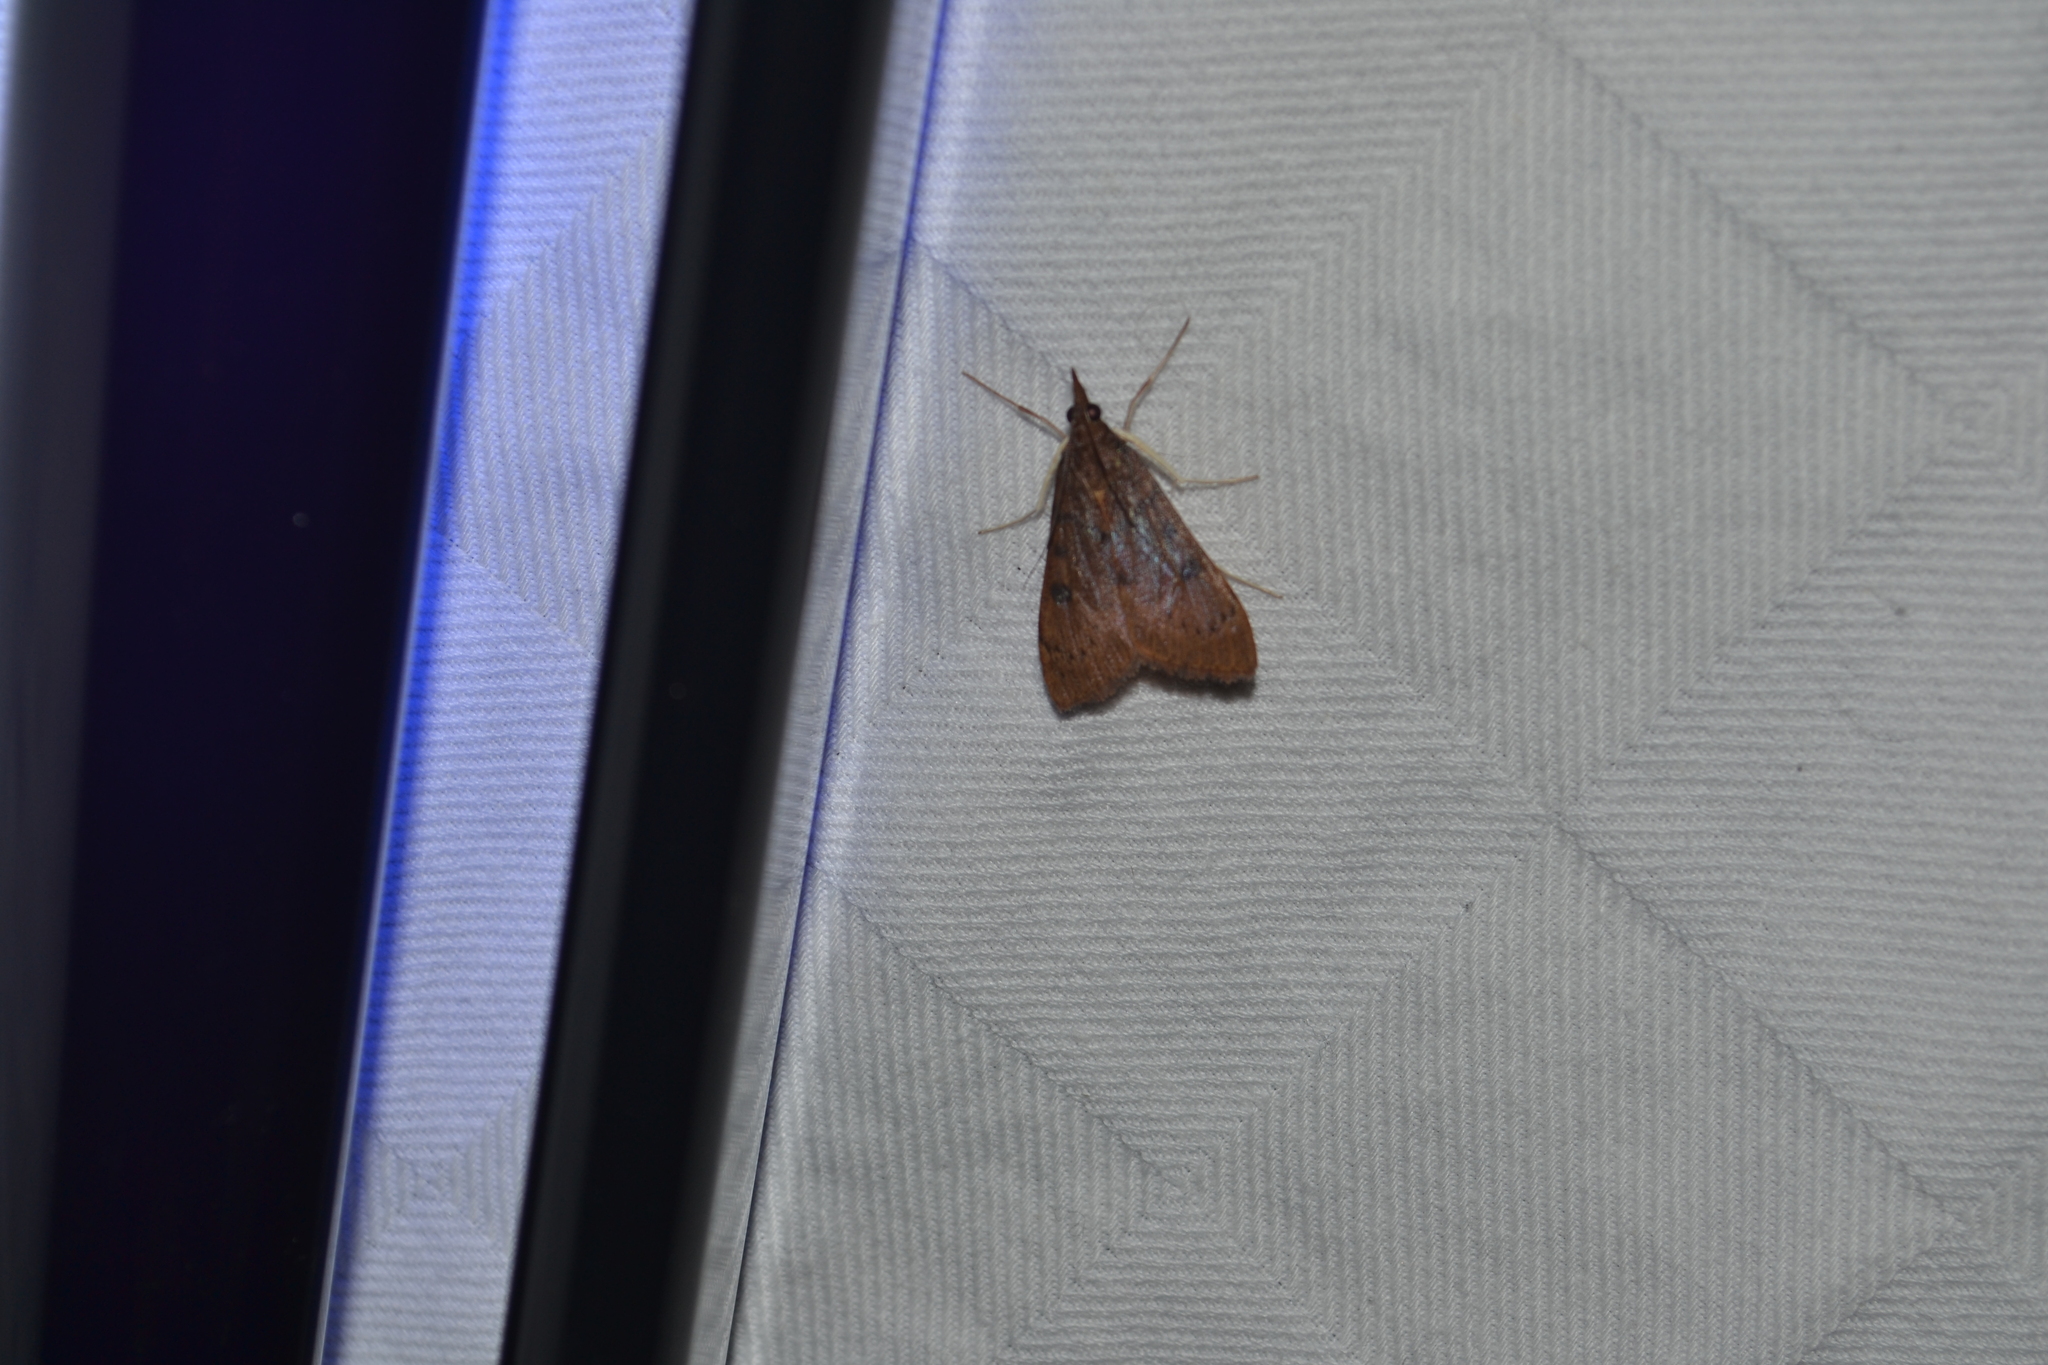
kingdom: Animalia
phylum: Arthropoda
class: Insecta
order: Lepidoptera
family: Crambidae
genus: Uresiphita
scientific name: Uresiphita reversalis
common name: Genista broom moth
